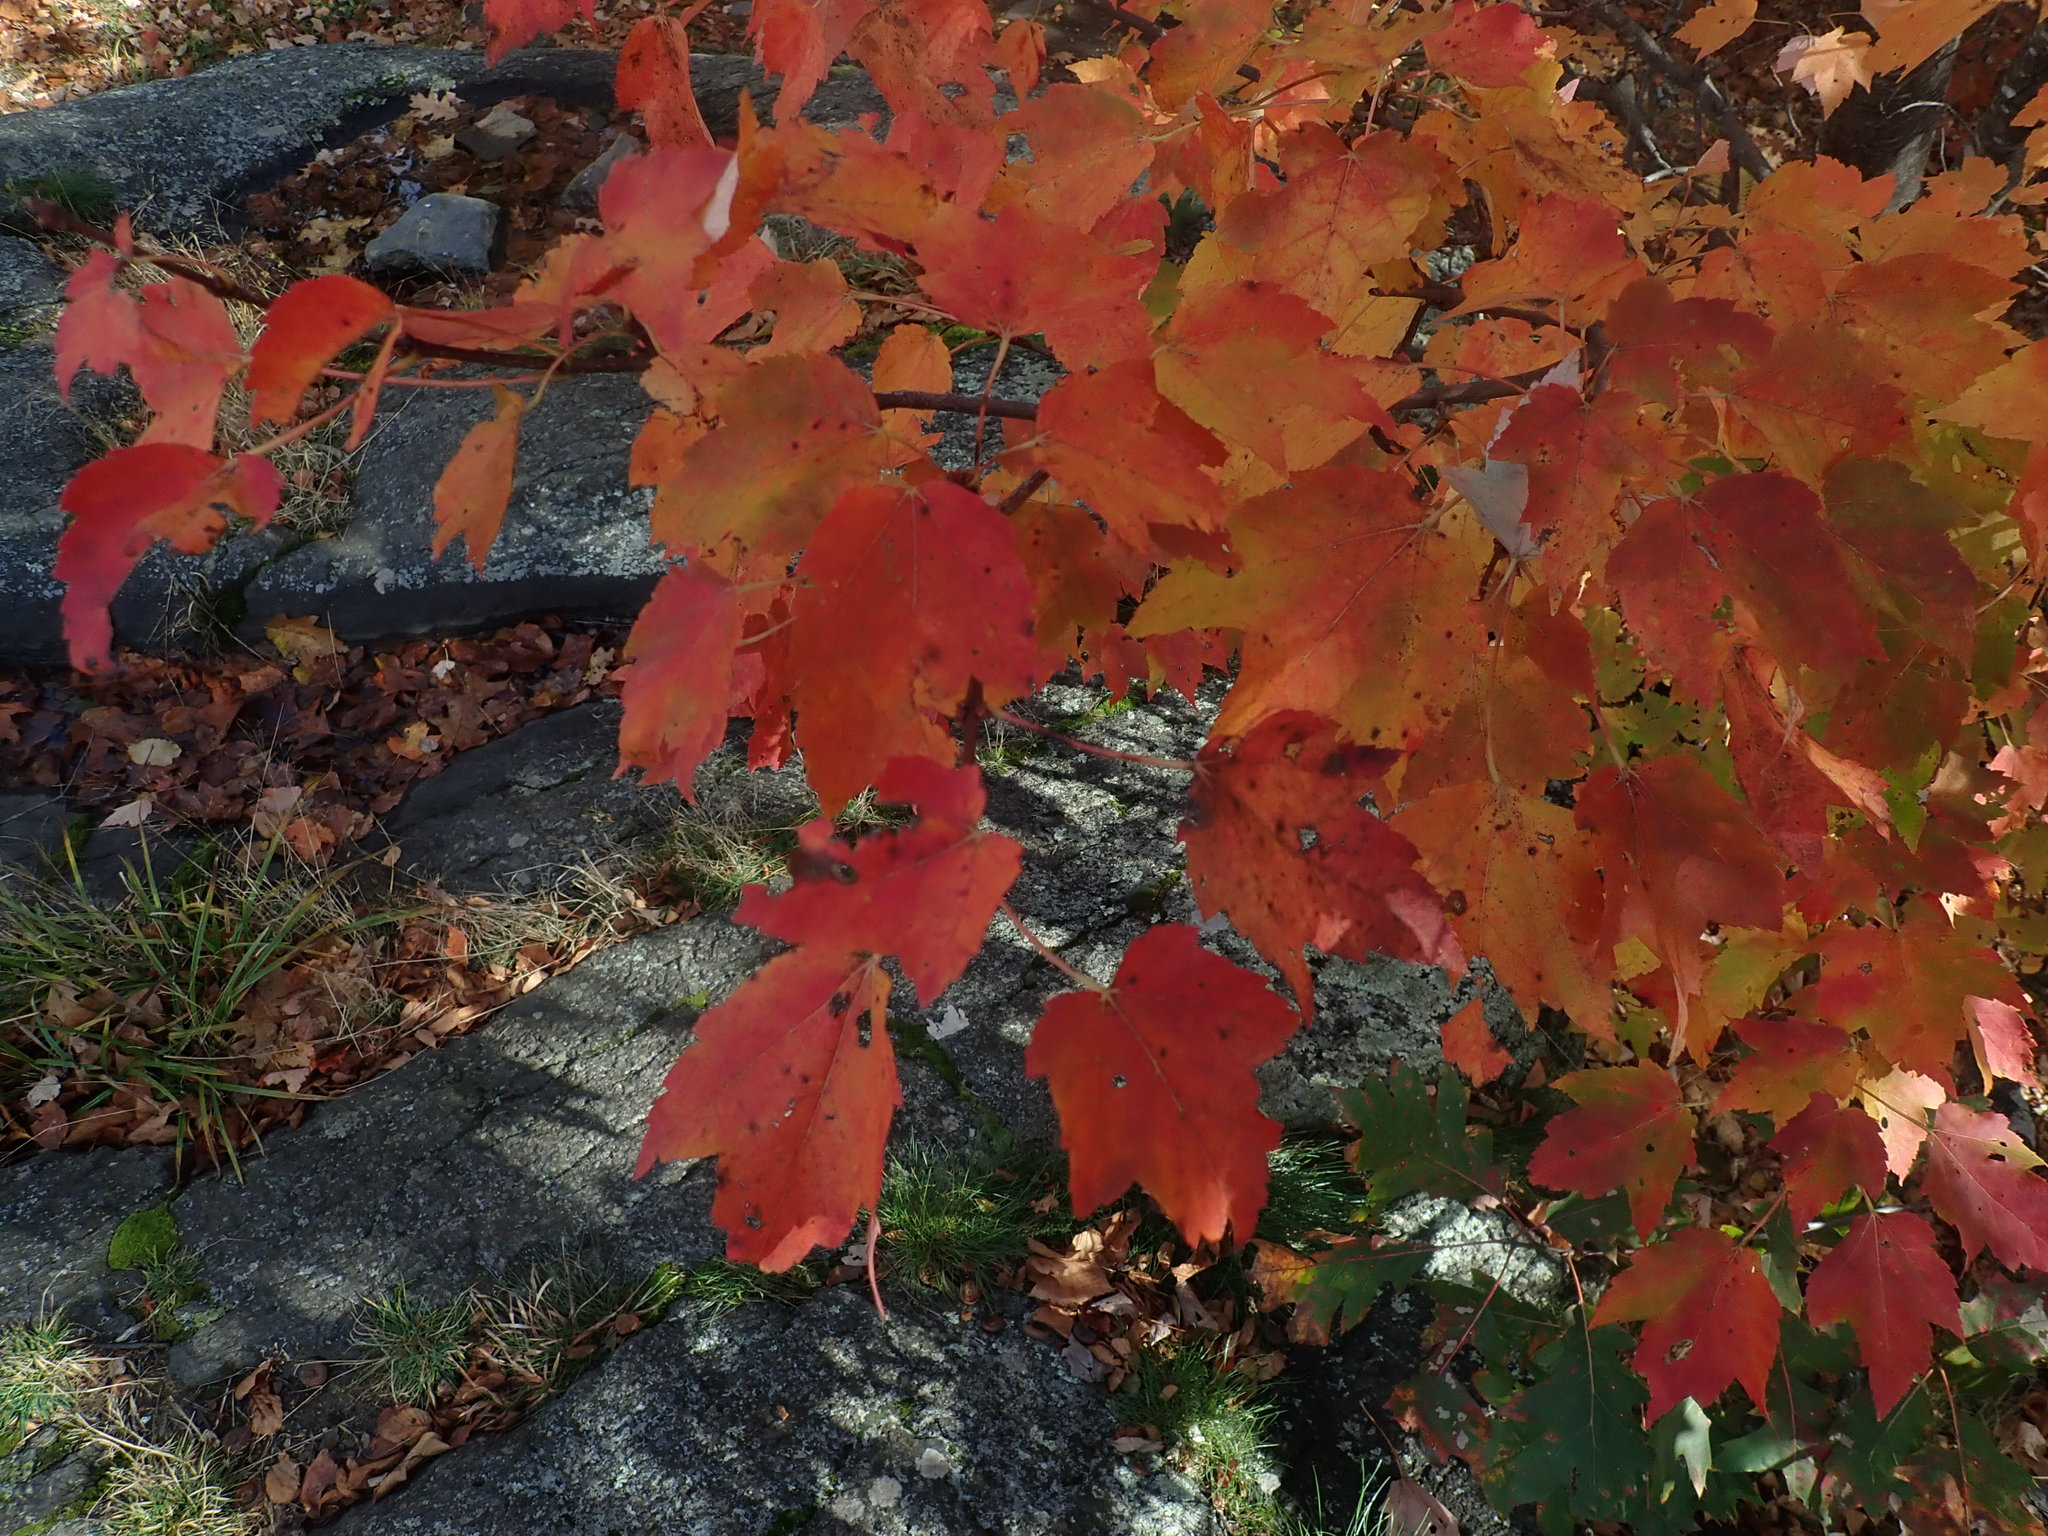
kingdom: Plantae
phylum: Tracheophyta
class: Magnoliopsida
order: Sapindales
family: Sapindaceae
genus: Acer
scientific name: Acer rubrum
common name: Red maple
